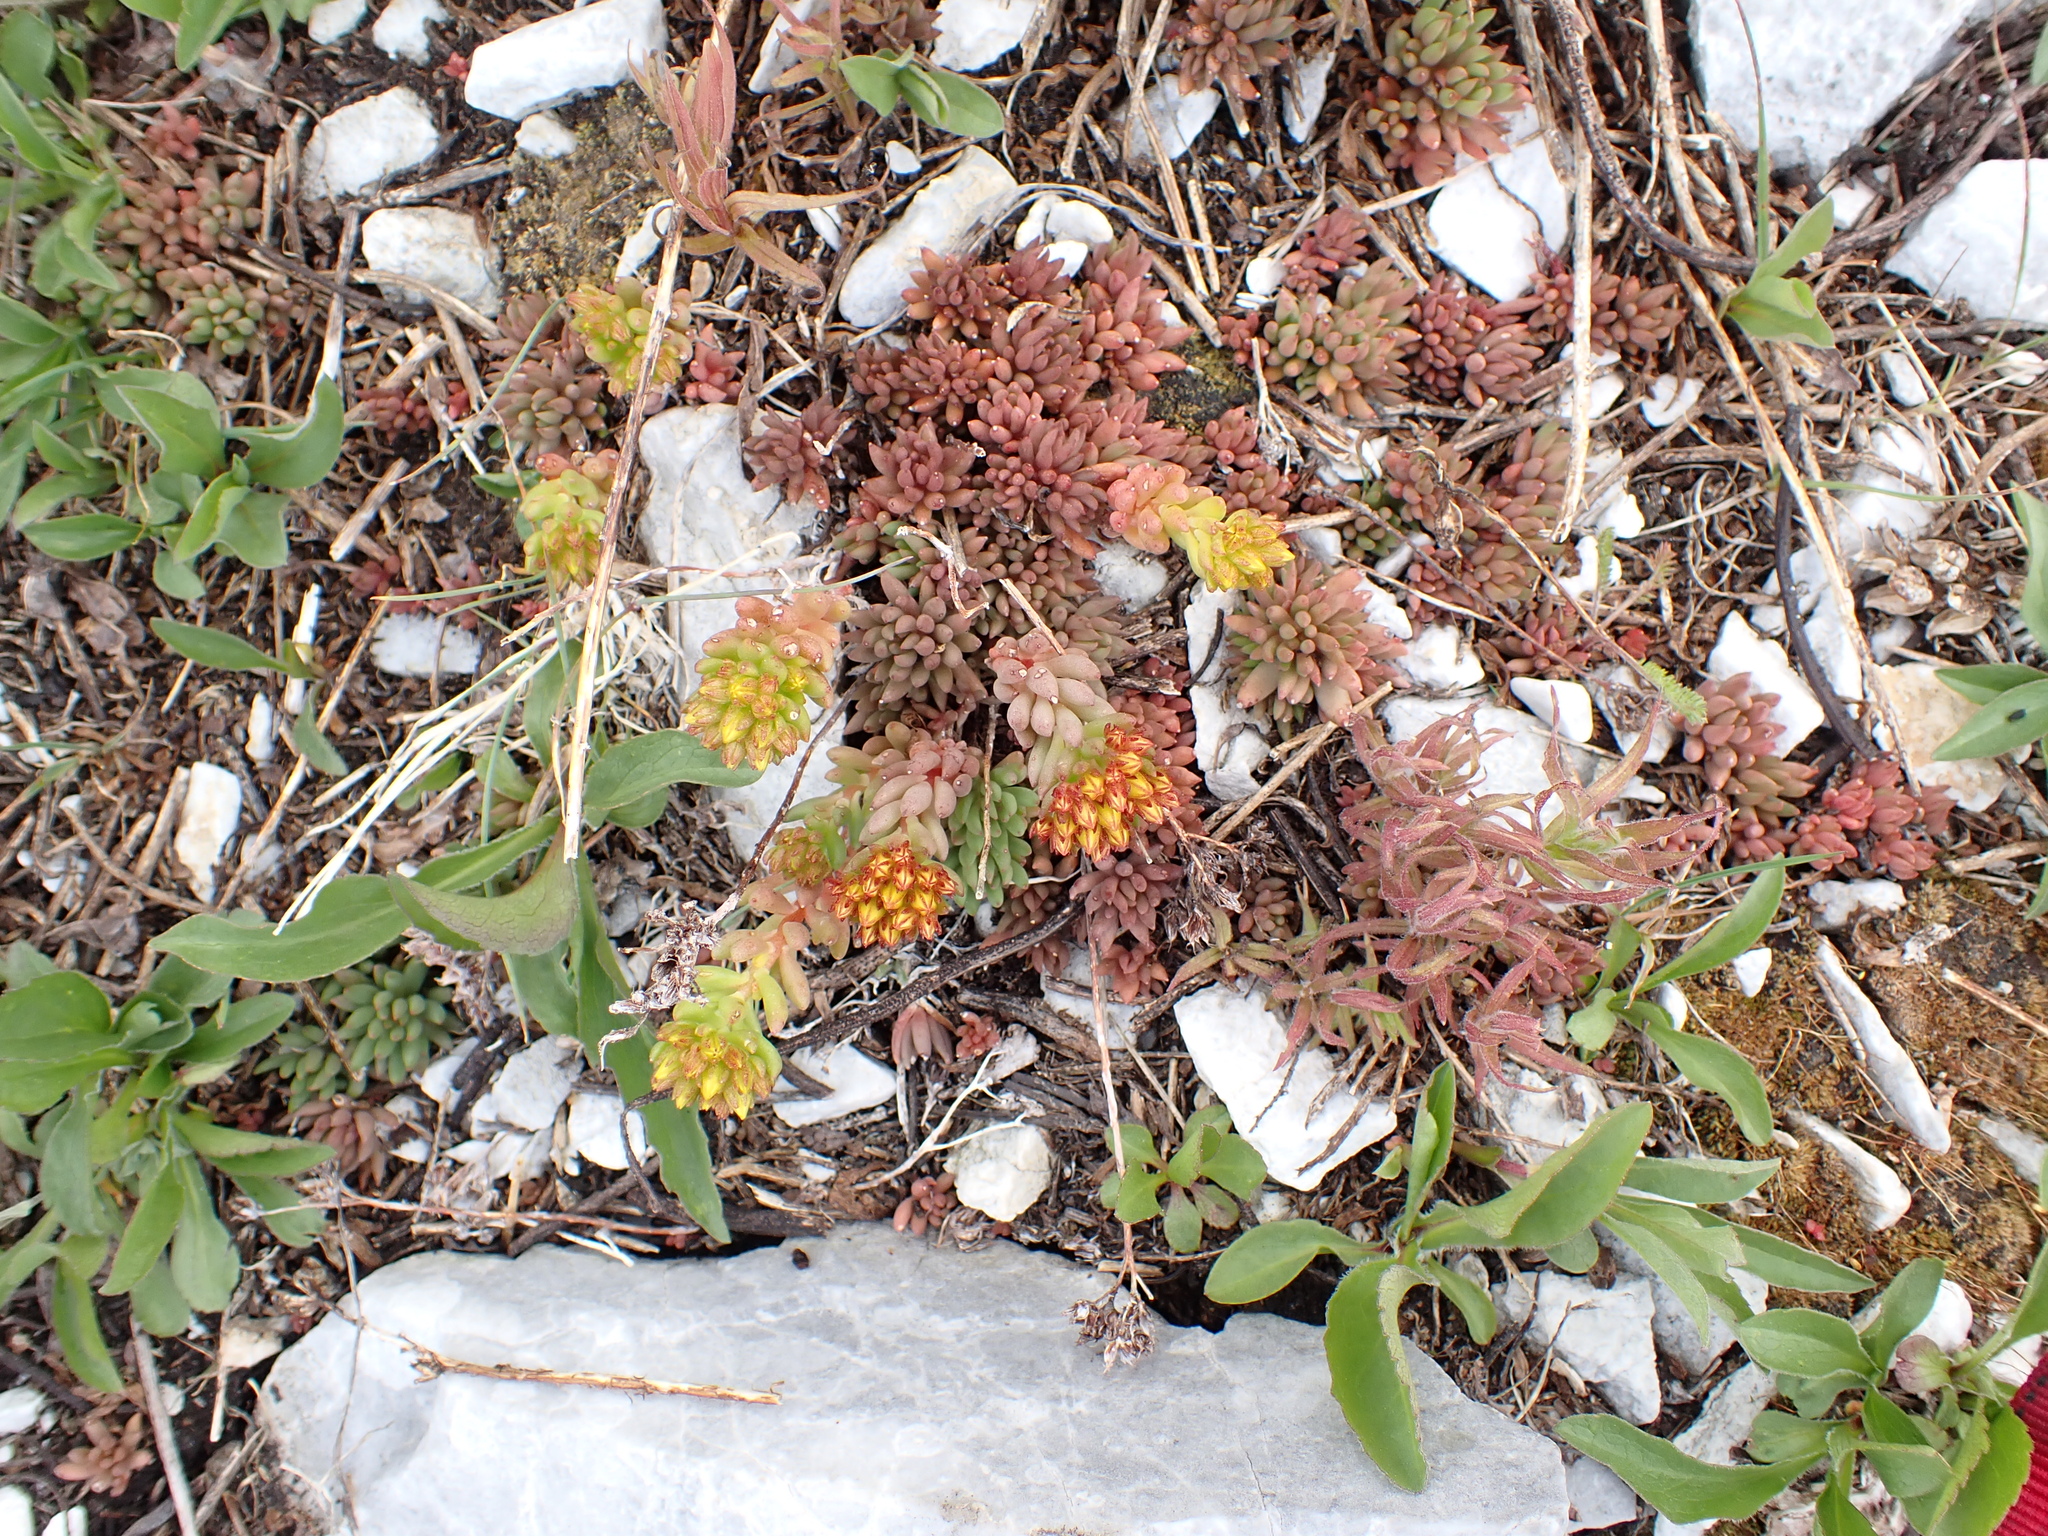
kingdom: Plantae
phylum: Tracheophyta
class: Magnoliopsida
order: Saxifragales
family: Crassulaceae
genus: Sedum
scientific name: Sedum lanceolatum
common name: Common stonecrop
